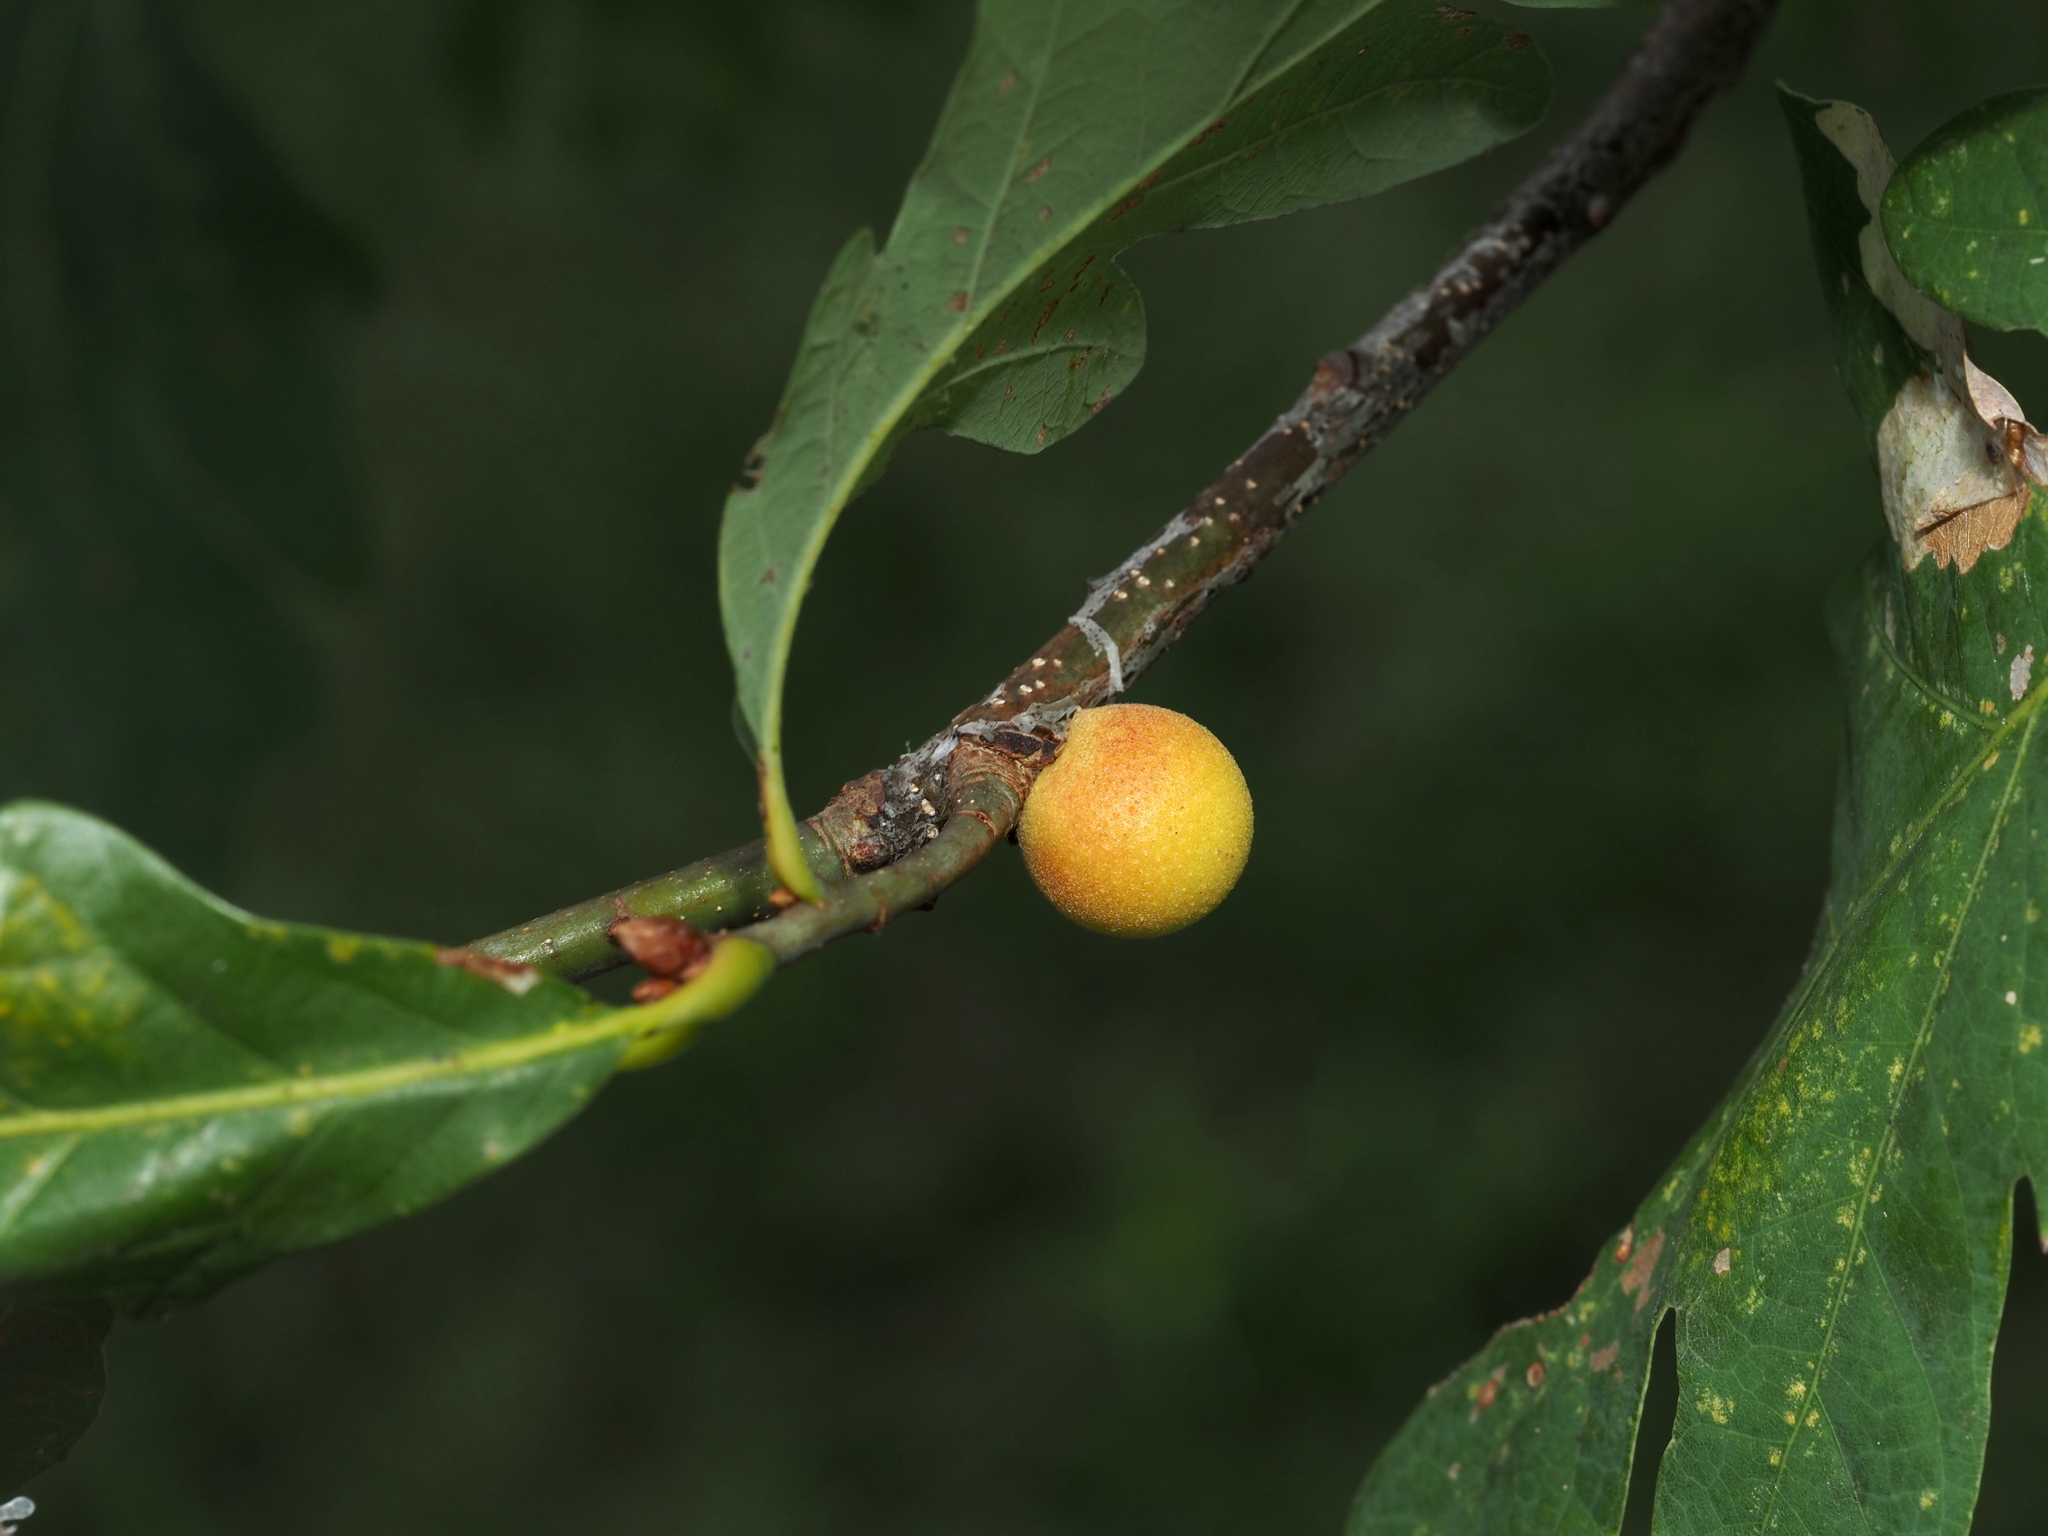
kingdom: Animalia
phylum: Arthropoda
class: Insecta
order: Hymenoptera
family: Cynipidae
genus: Disholcaspis
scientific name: Disholcaspis quercusglobulus
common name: Round bullet gall wasp
